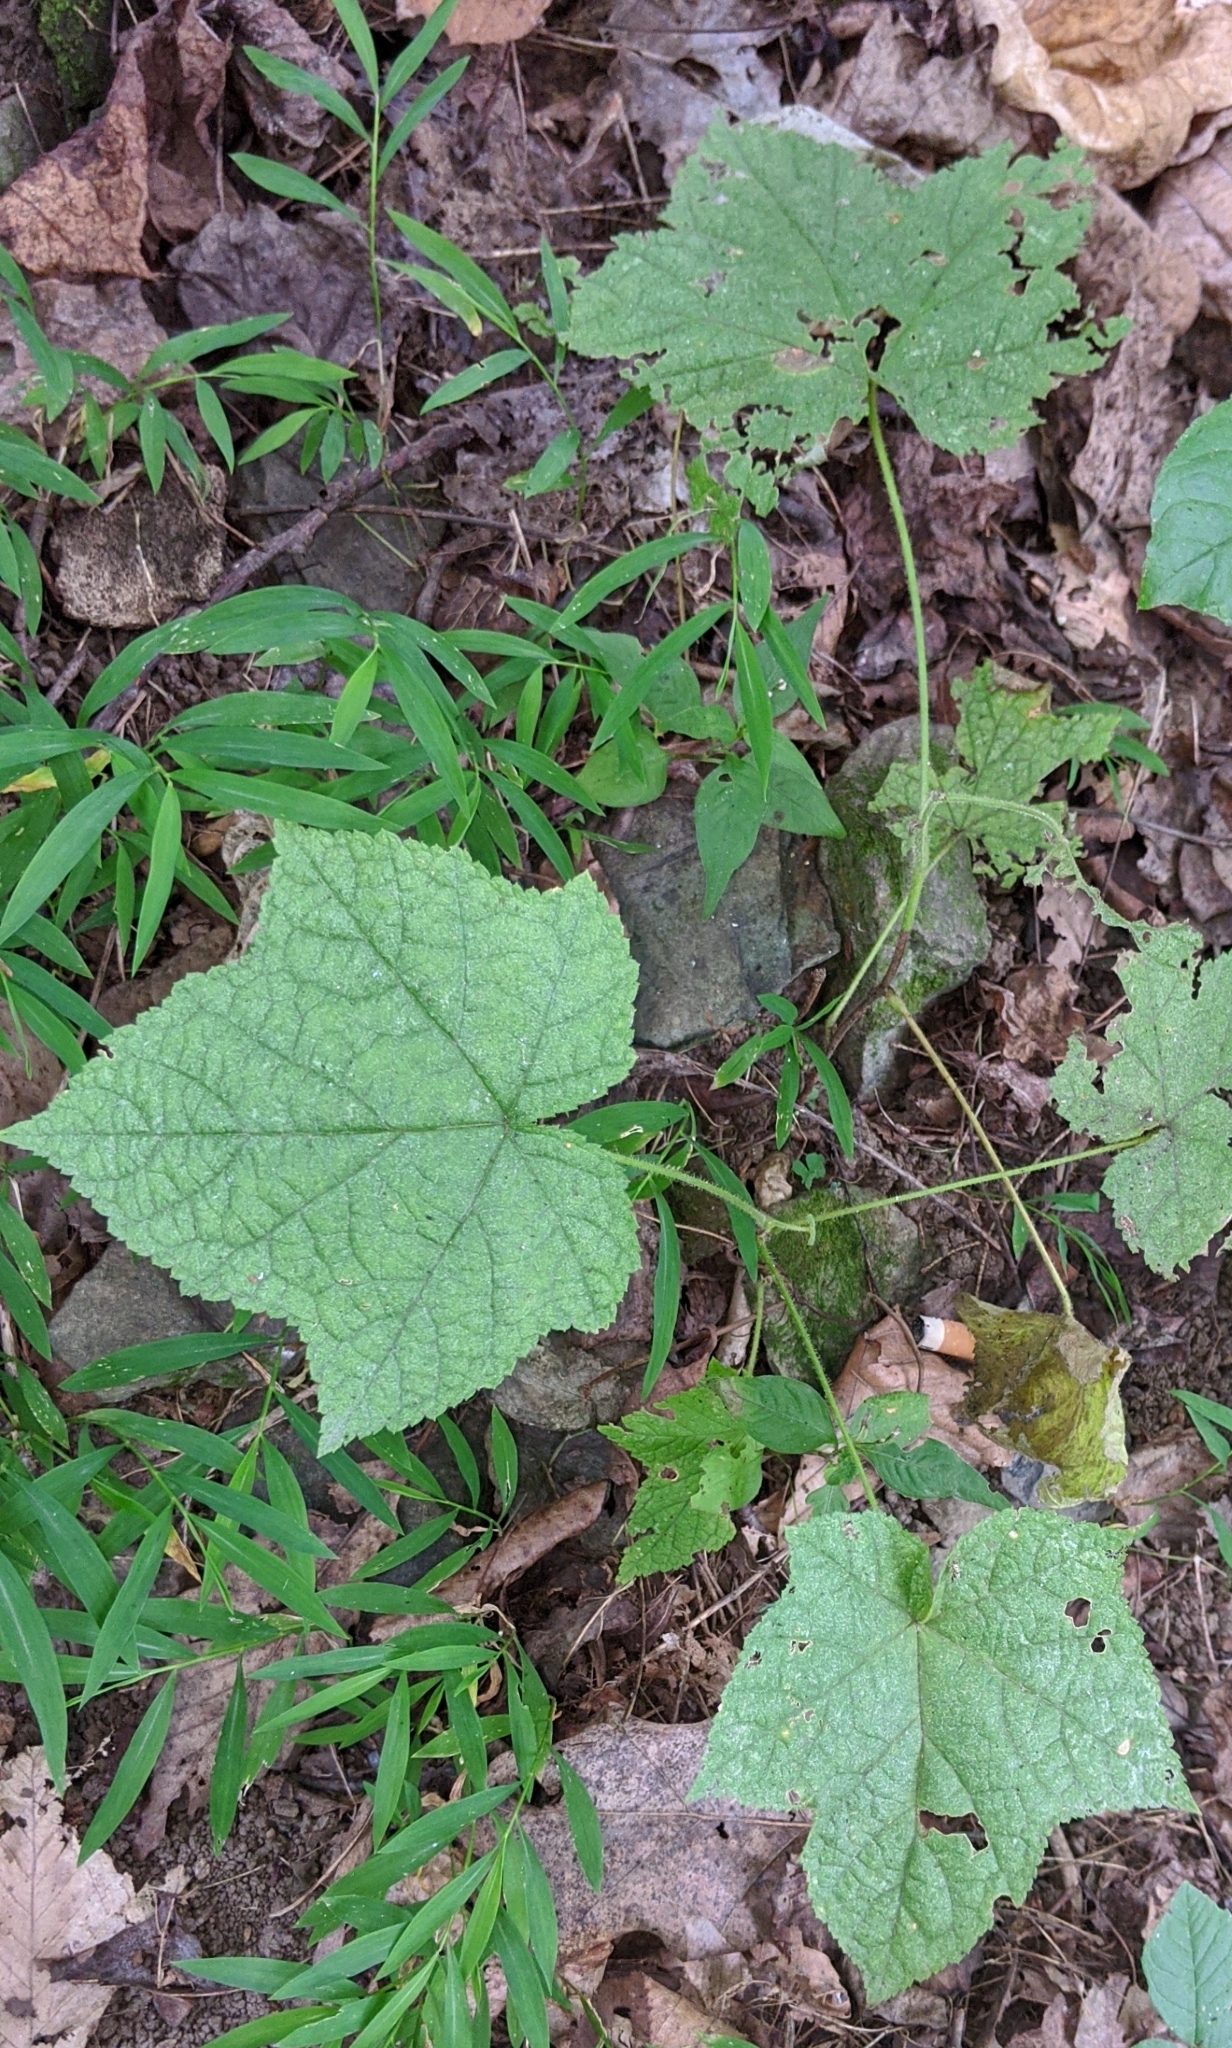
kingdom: Plantae
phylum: Tracheophyta
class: Magnoliopsida
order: Rosales
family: Rosaceae
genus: Rubus
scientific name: Rubus odoratus
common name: Purple-flowered raspberry
